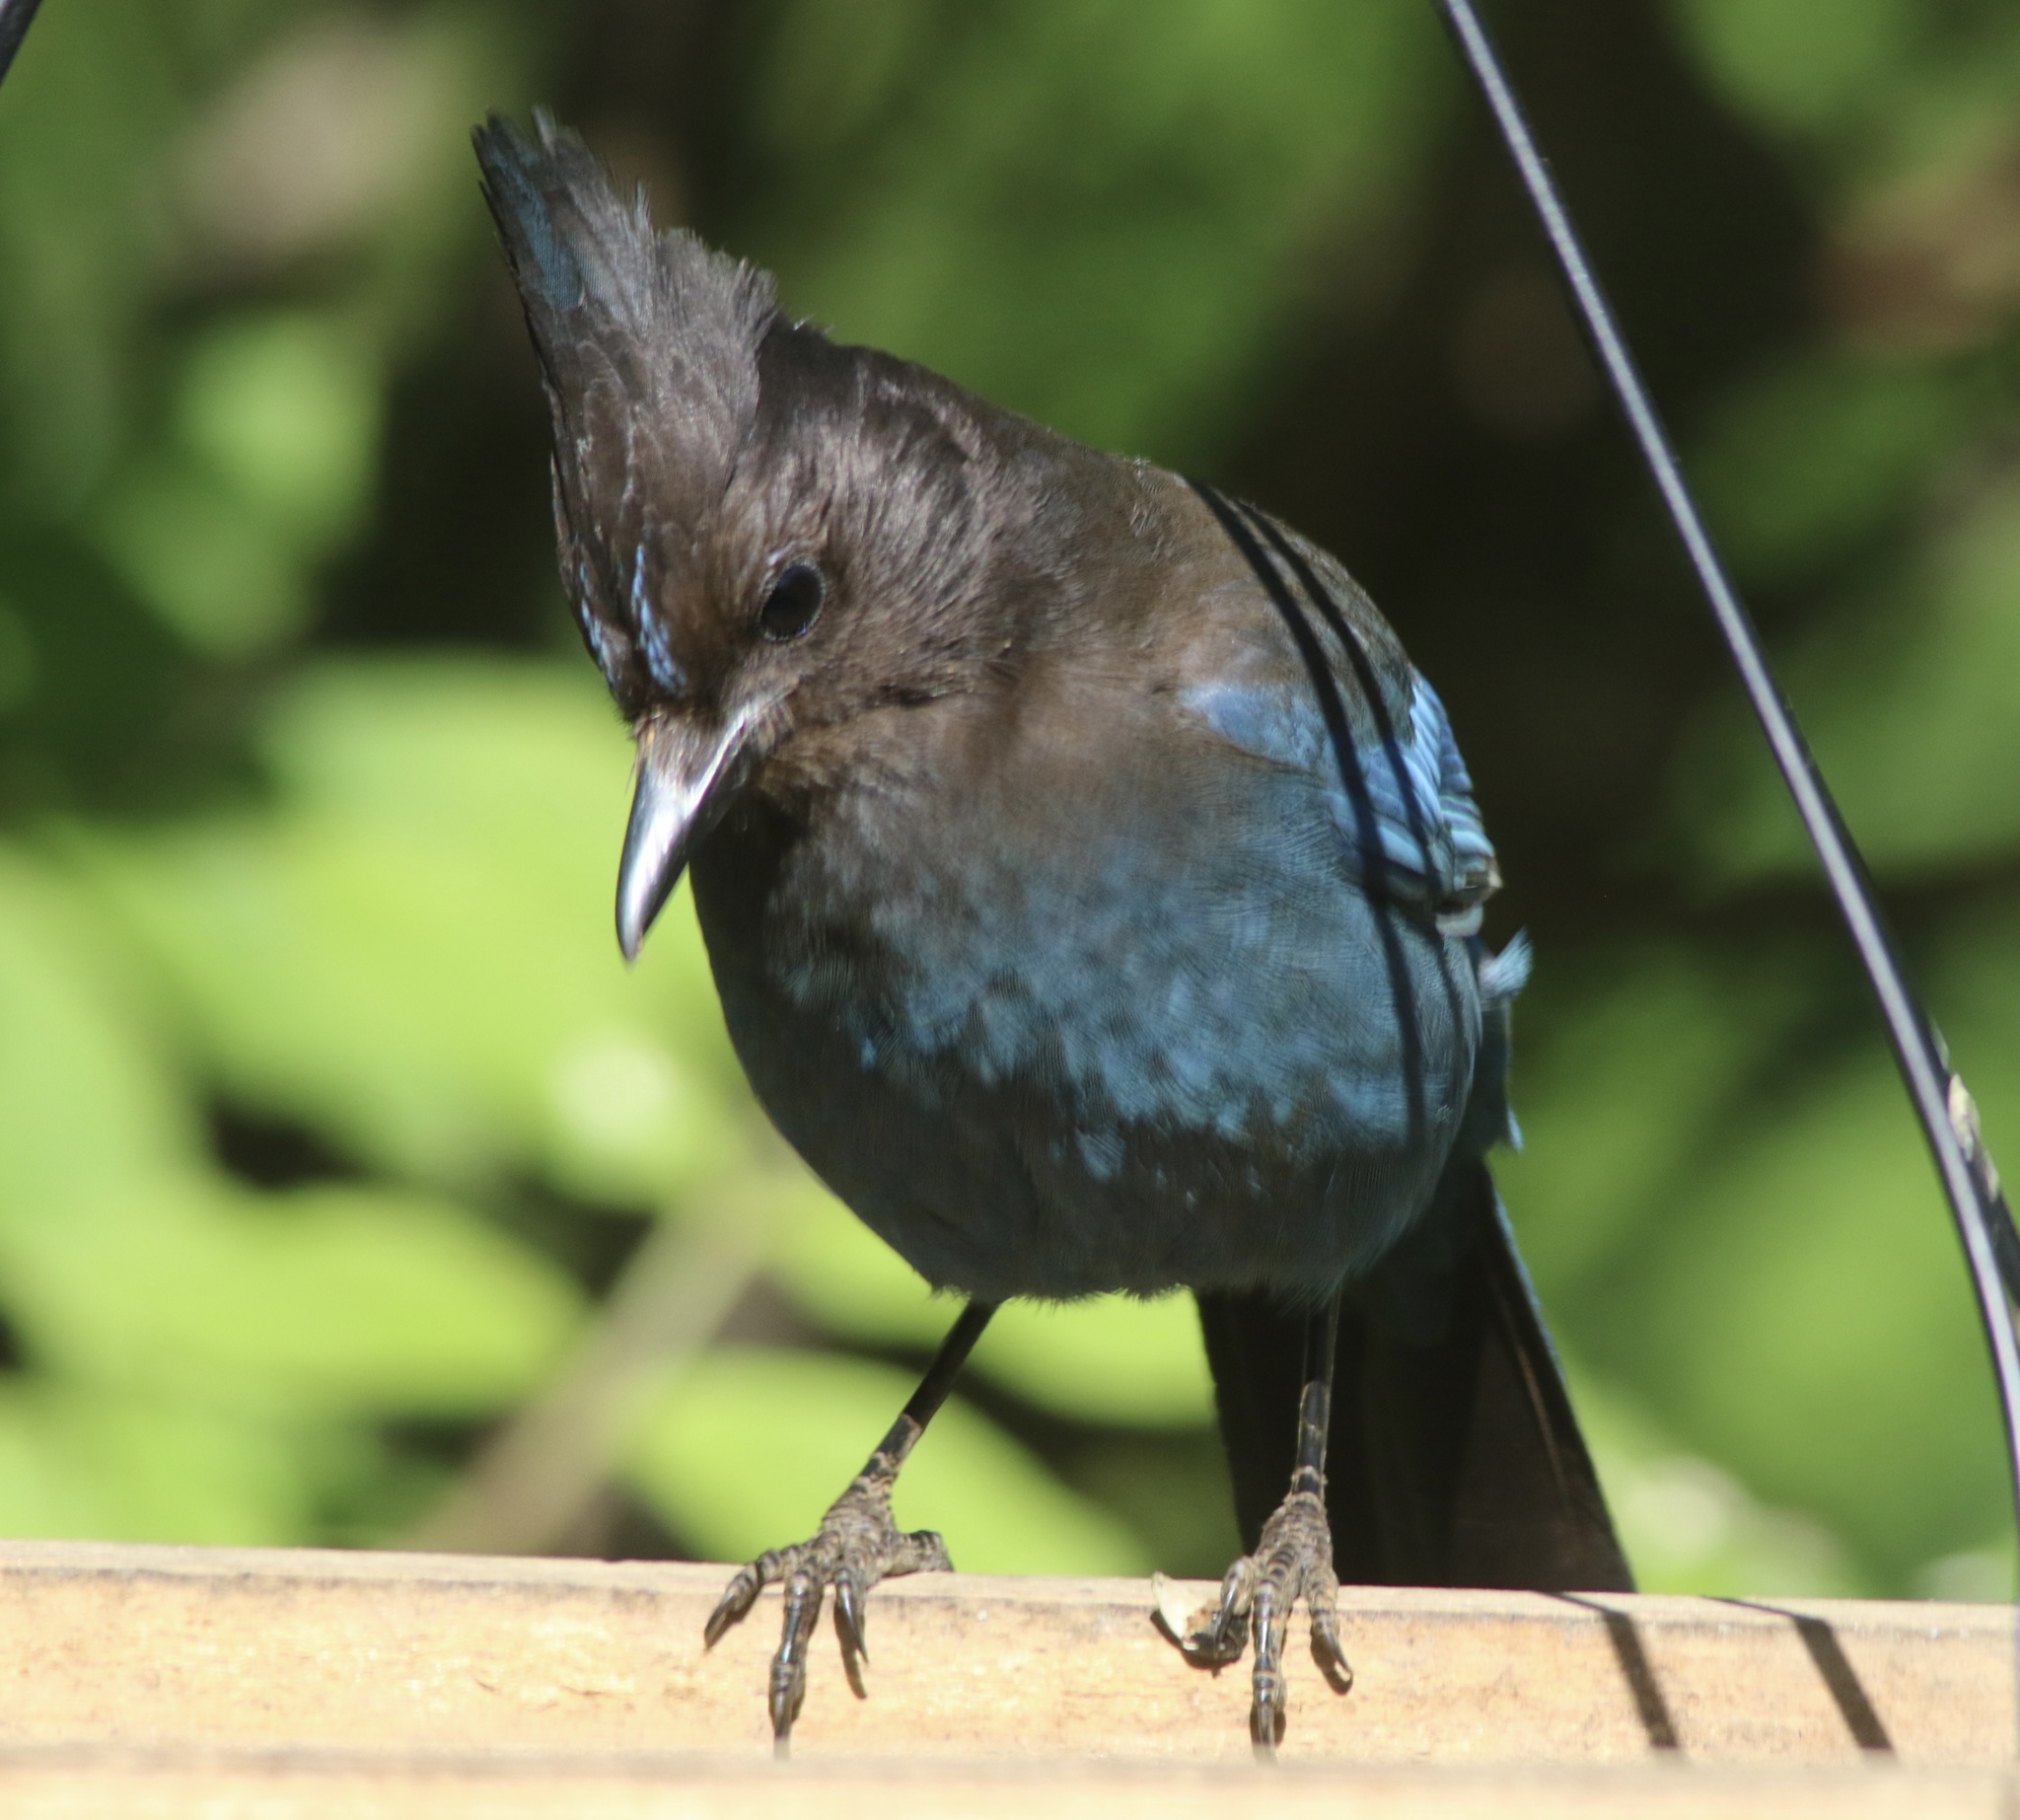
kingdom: Animalia
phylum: Chordata
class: Aves
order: Passeriformes
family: Corvidae
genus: Cyanocitta
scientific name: Cyanocitta stelleri
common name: Steller's jay
